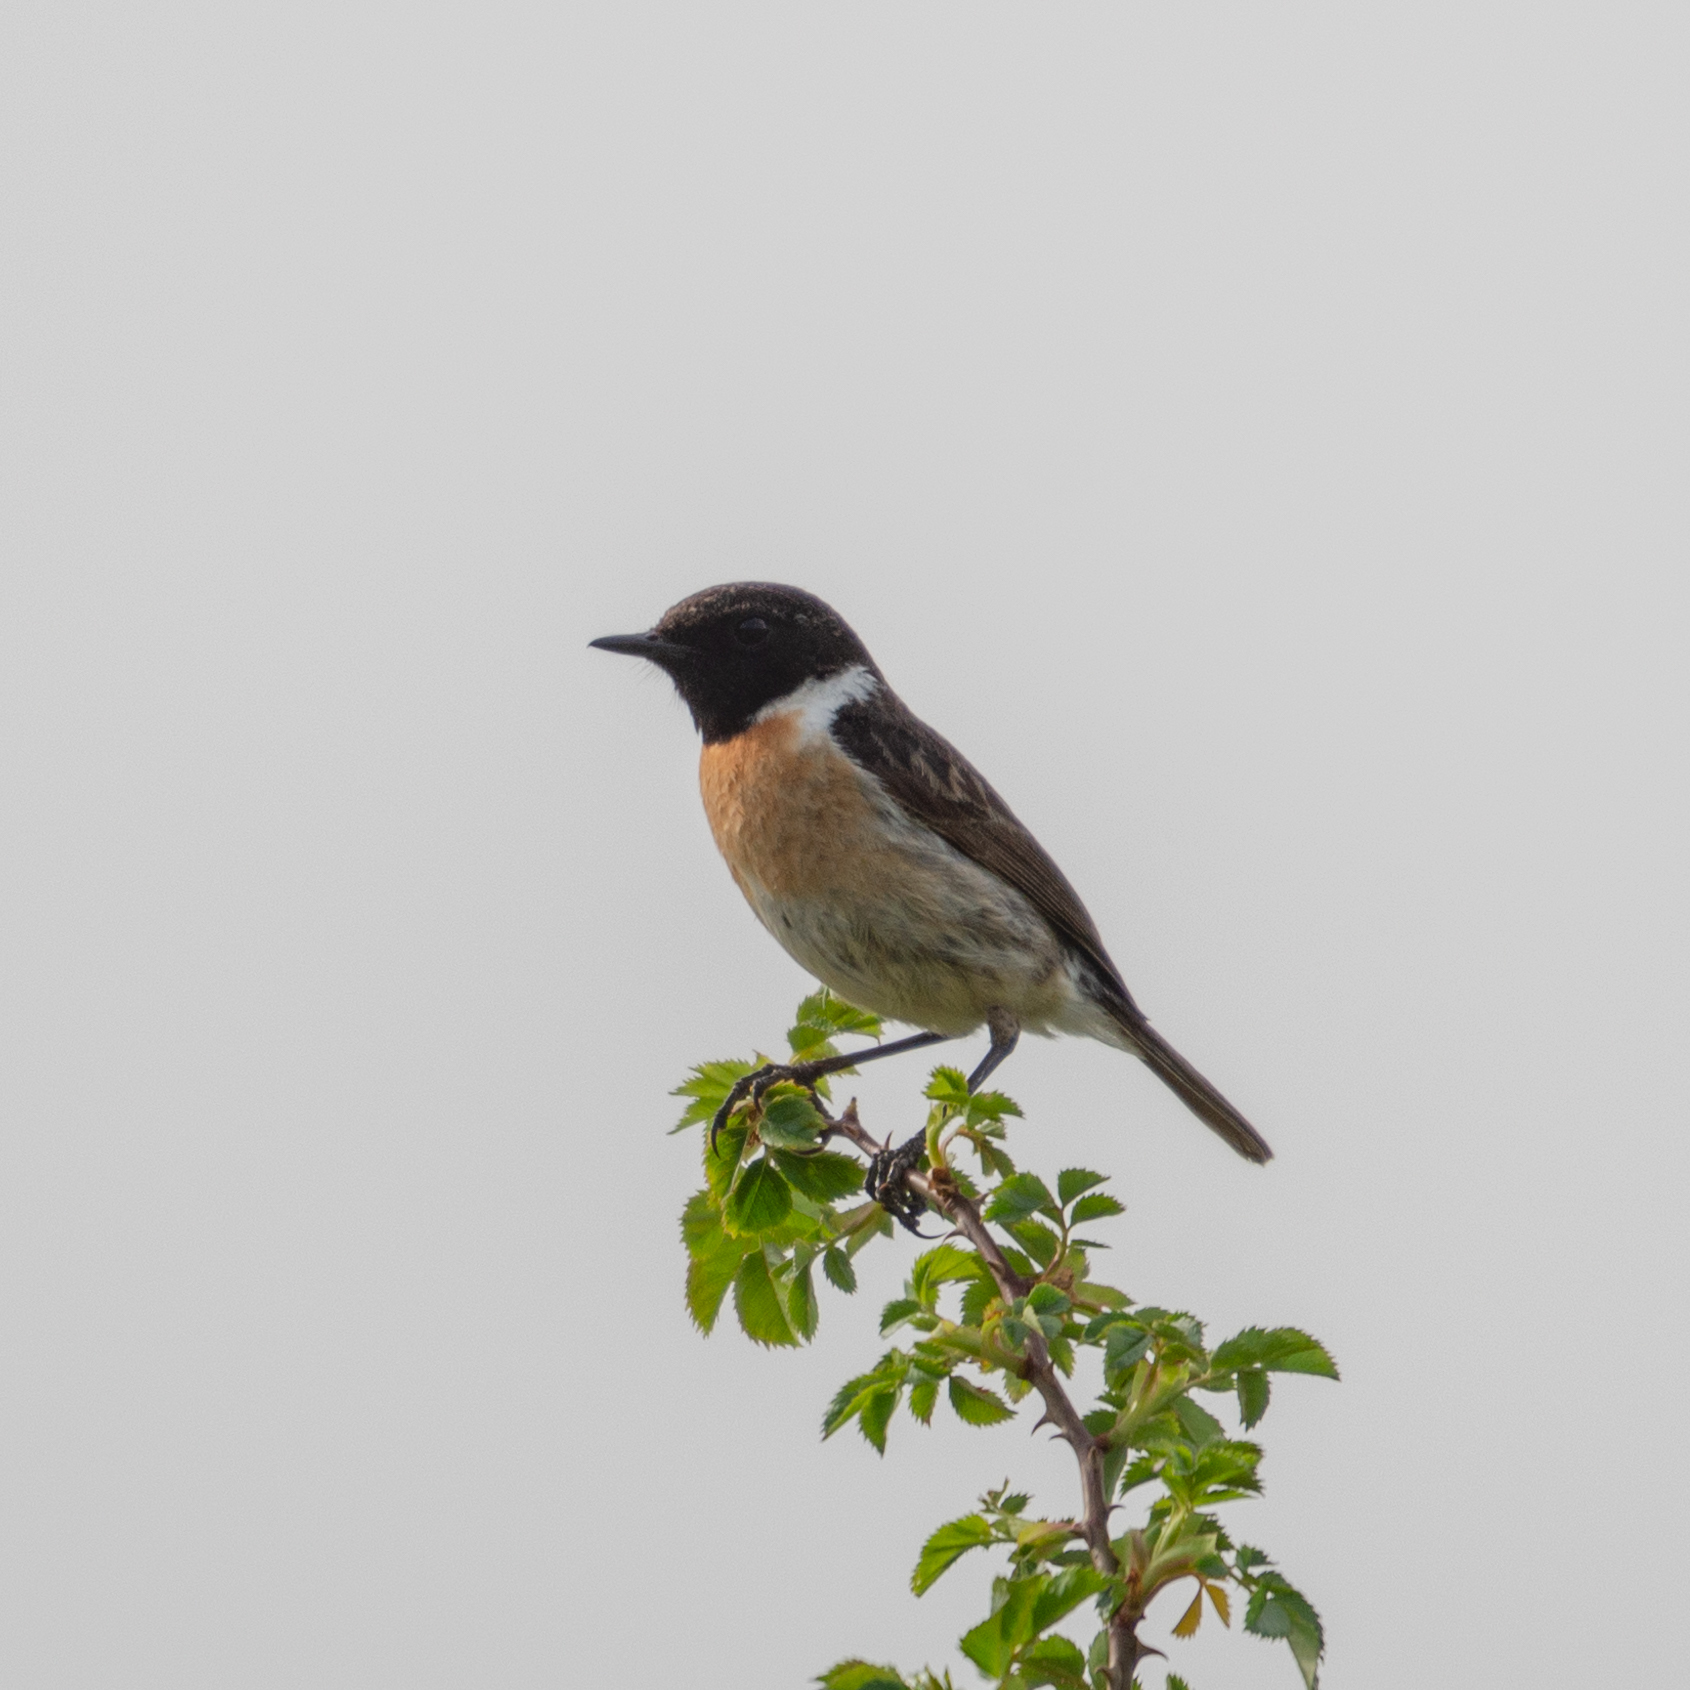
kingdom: Animalia
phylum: Chordata
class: Aves
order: Passeriformes
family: Muscicapidae
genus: Saxicola
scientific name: Saxicola rubicola
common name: European stonechat
